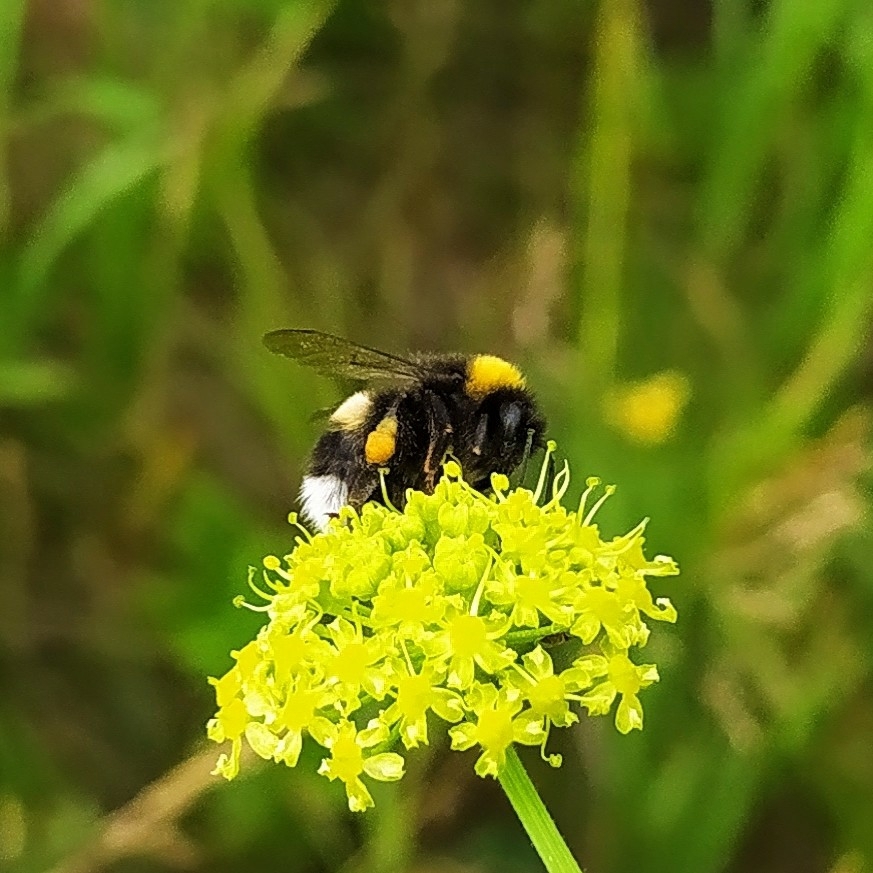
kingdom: Animalia
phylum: Arthropoda
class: Insecta
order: Hymenoptera
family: Apidae
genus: Bombus
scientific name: Bombus
